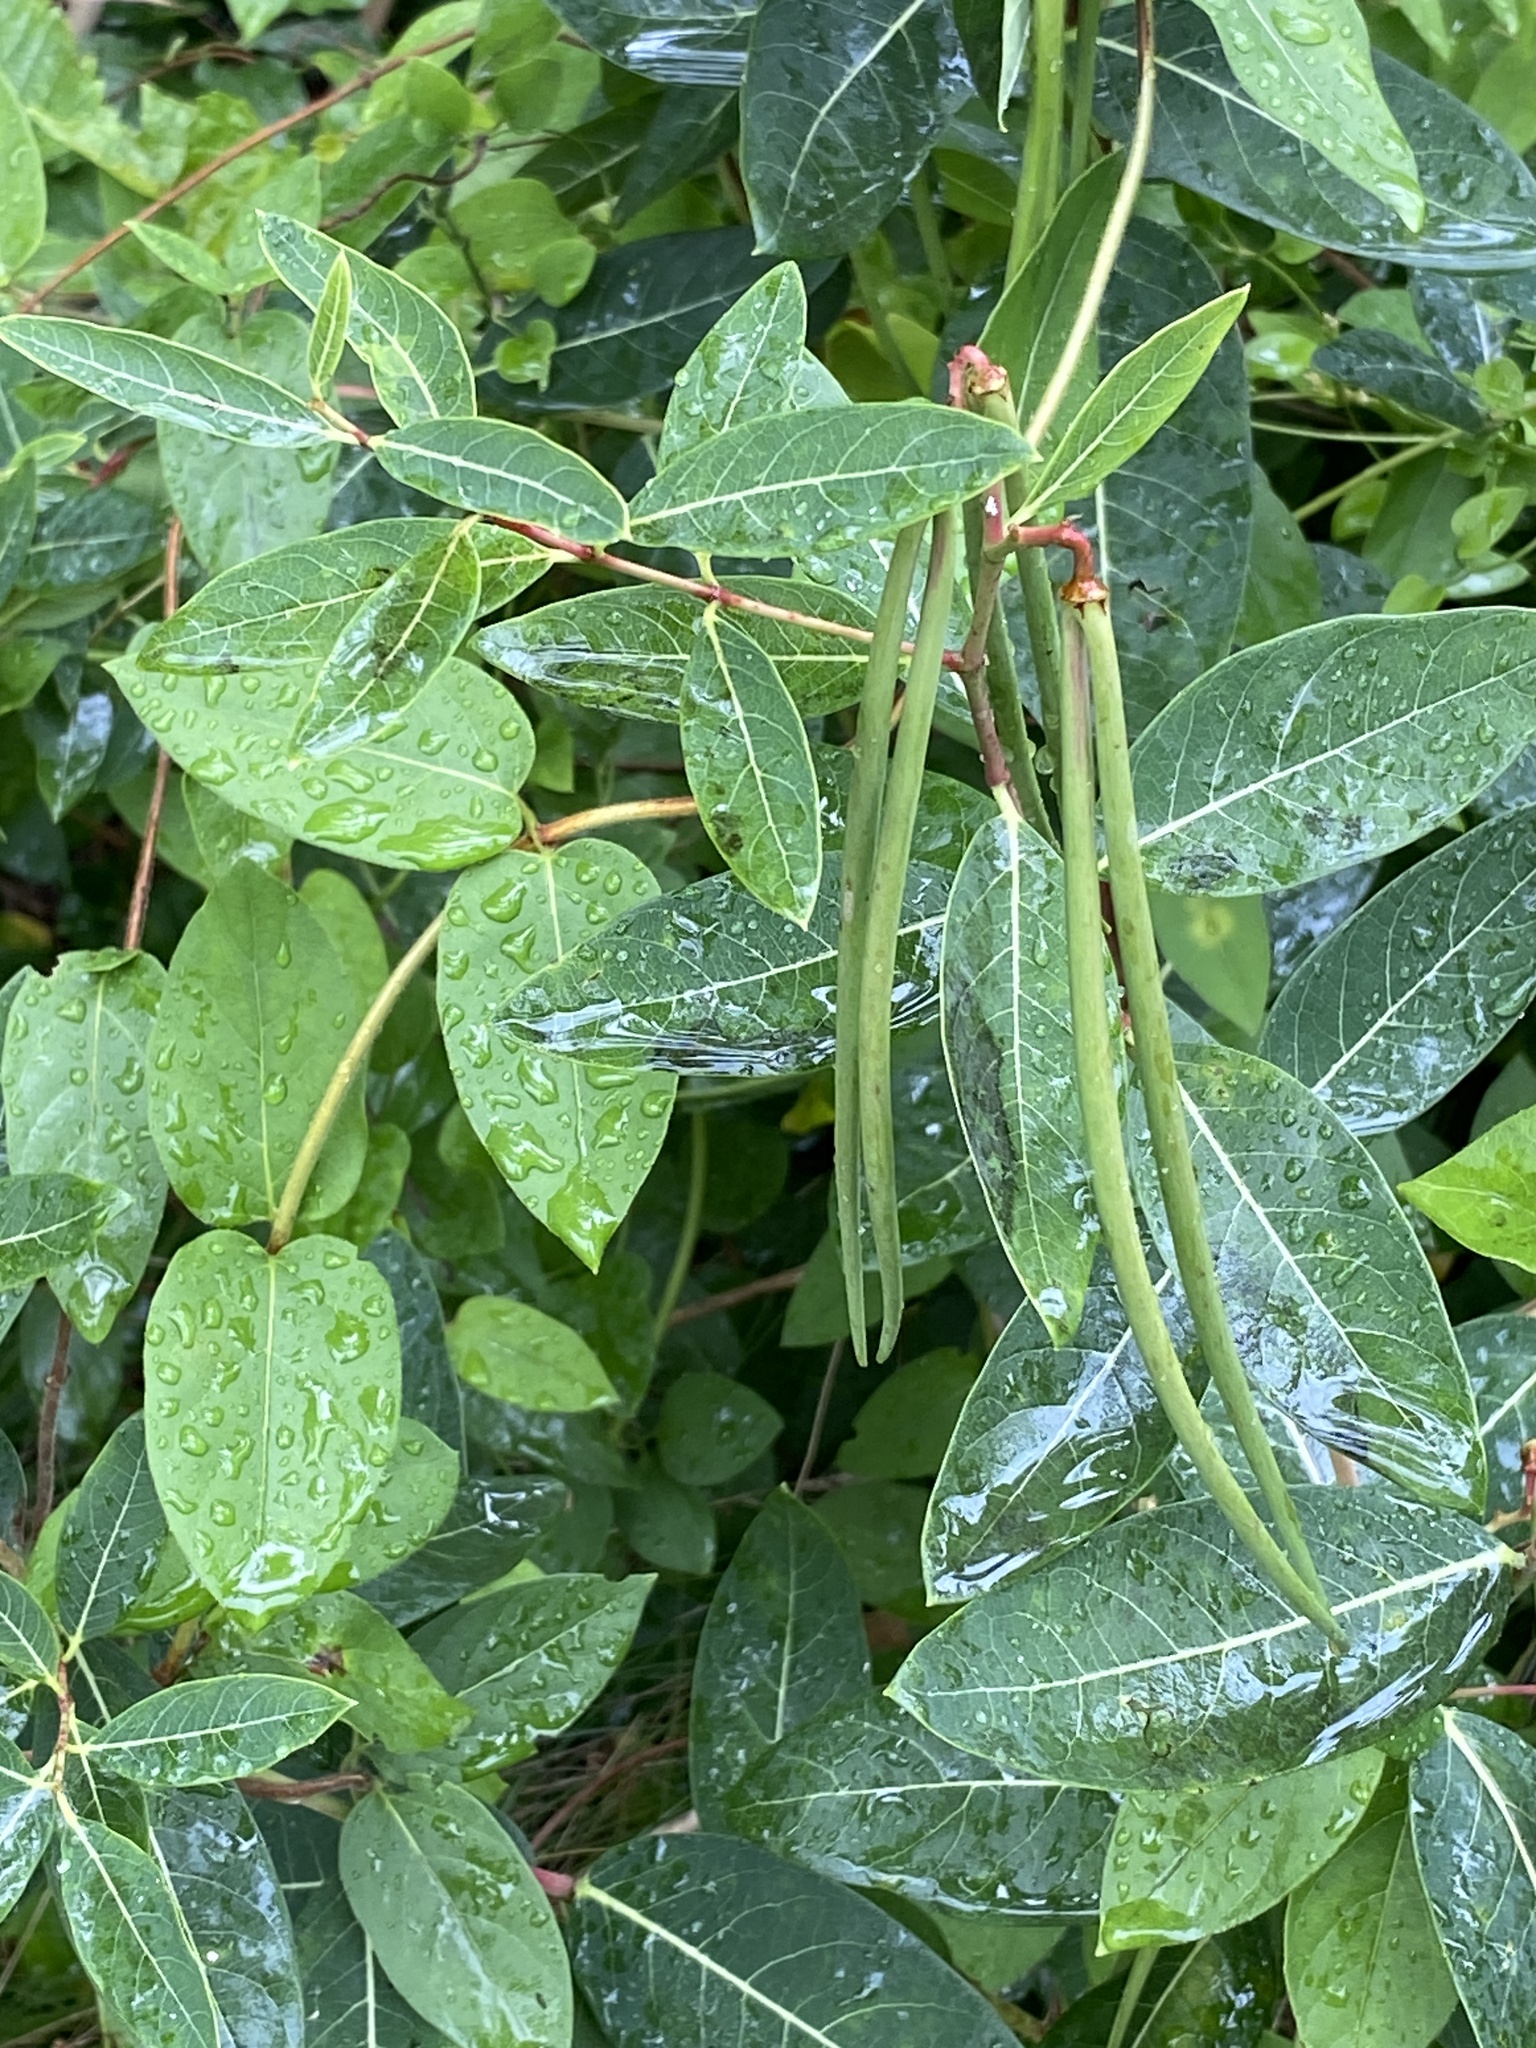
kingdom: Plantae
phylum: Tracheophyta
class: Magnoliopsida
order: Gentianales
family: Apocynaceae
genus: Apocynum
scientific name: Apocynum cannabinum
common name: Hemp dogbane
